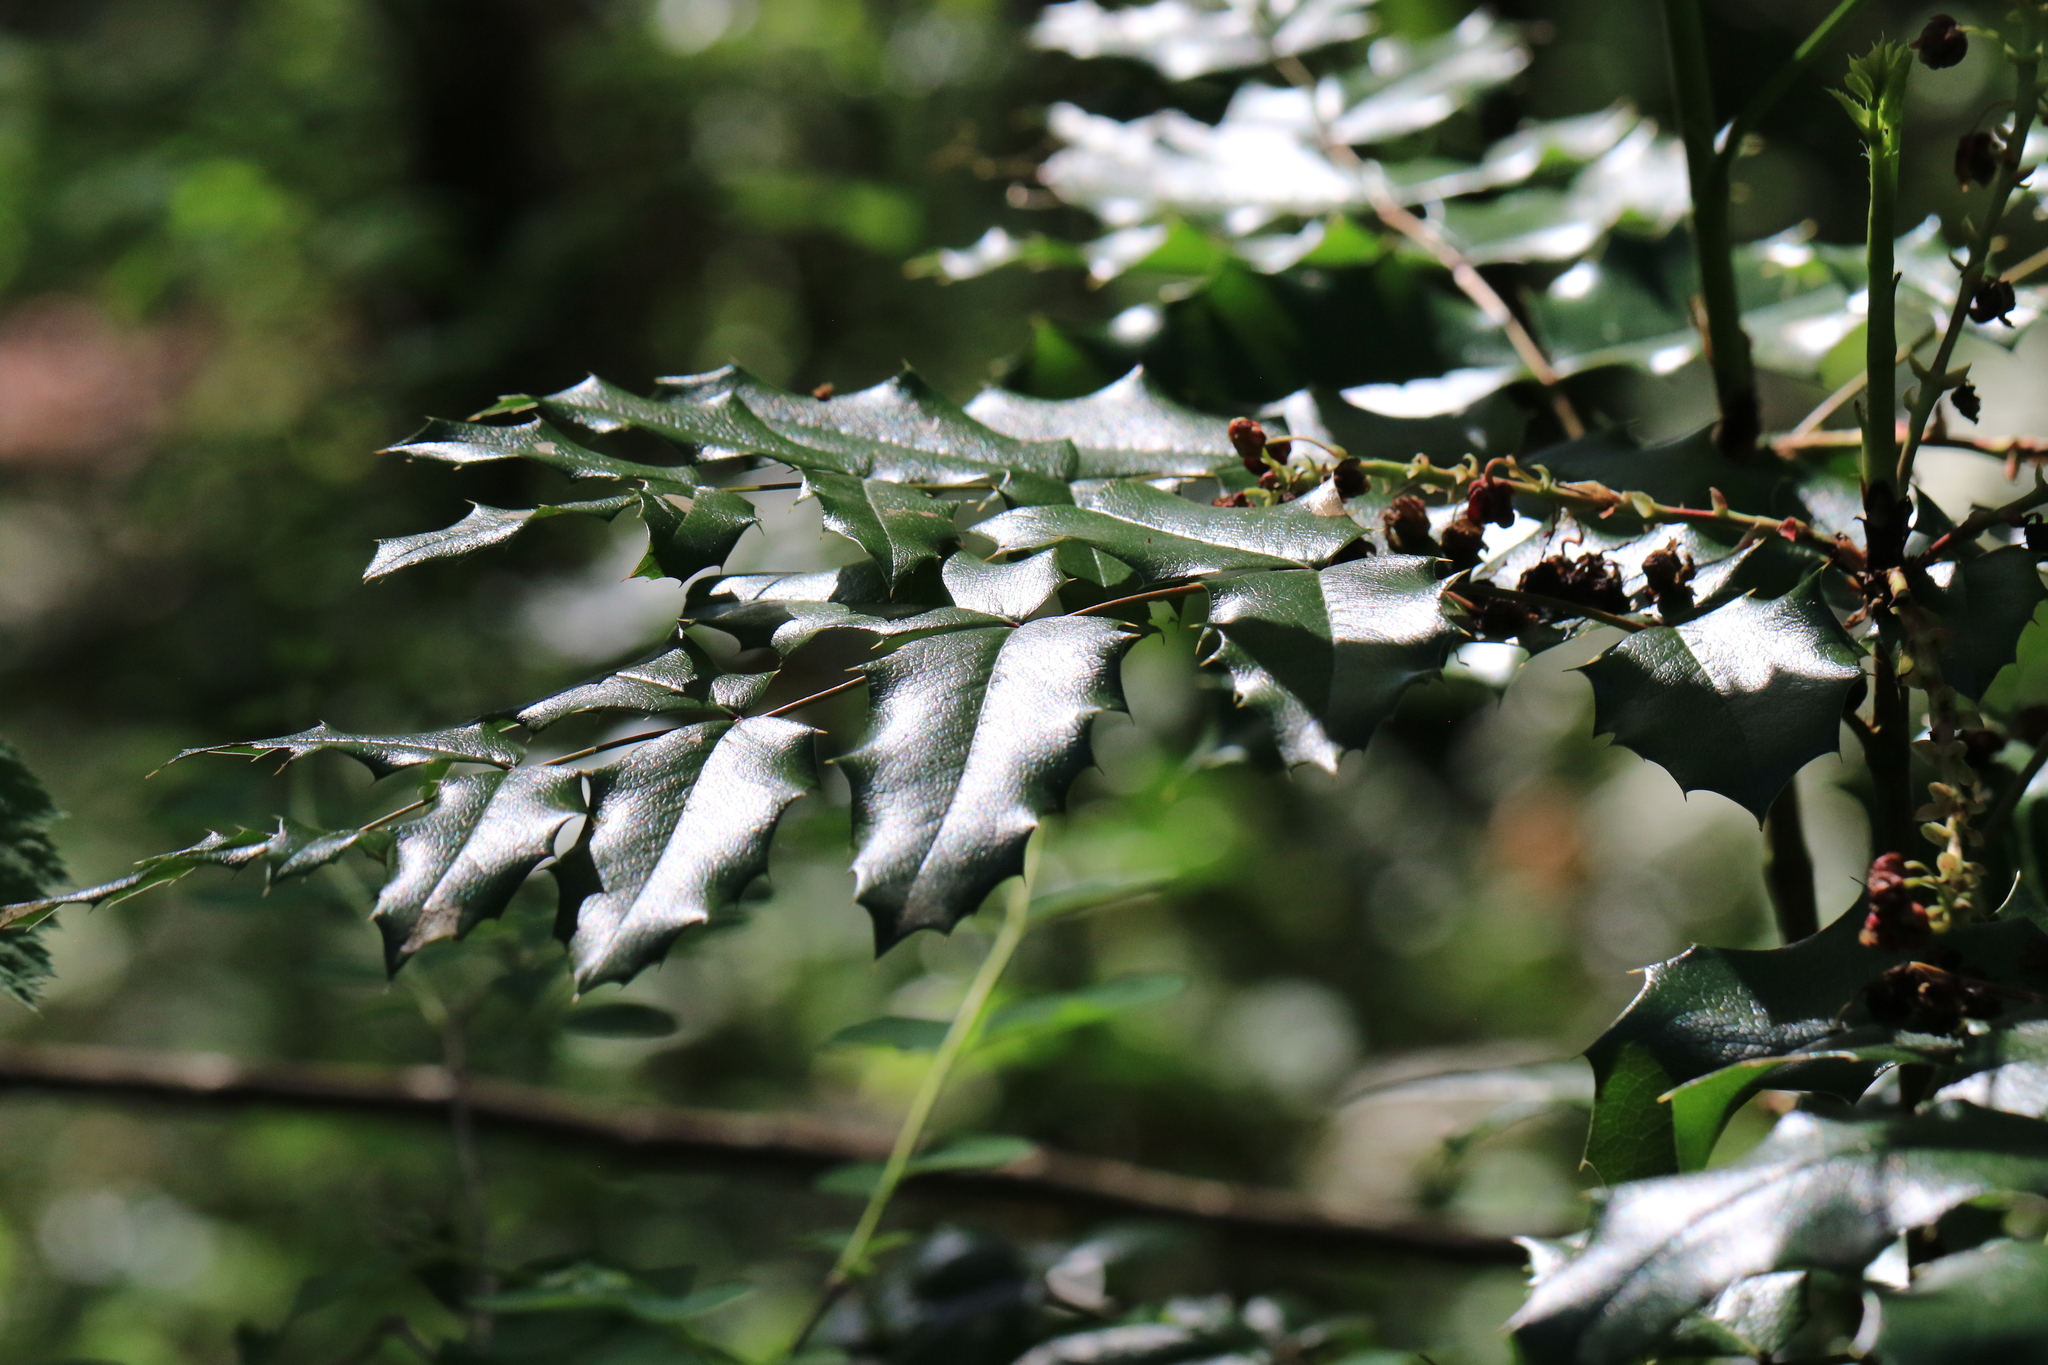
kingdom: Plantae
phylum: Tracheophyta
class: Magnoliopsida
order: Ranunculales
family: Berberidaceae
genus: Mahonia
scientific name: Mahonia aquifolium
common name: Oregon-grape
